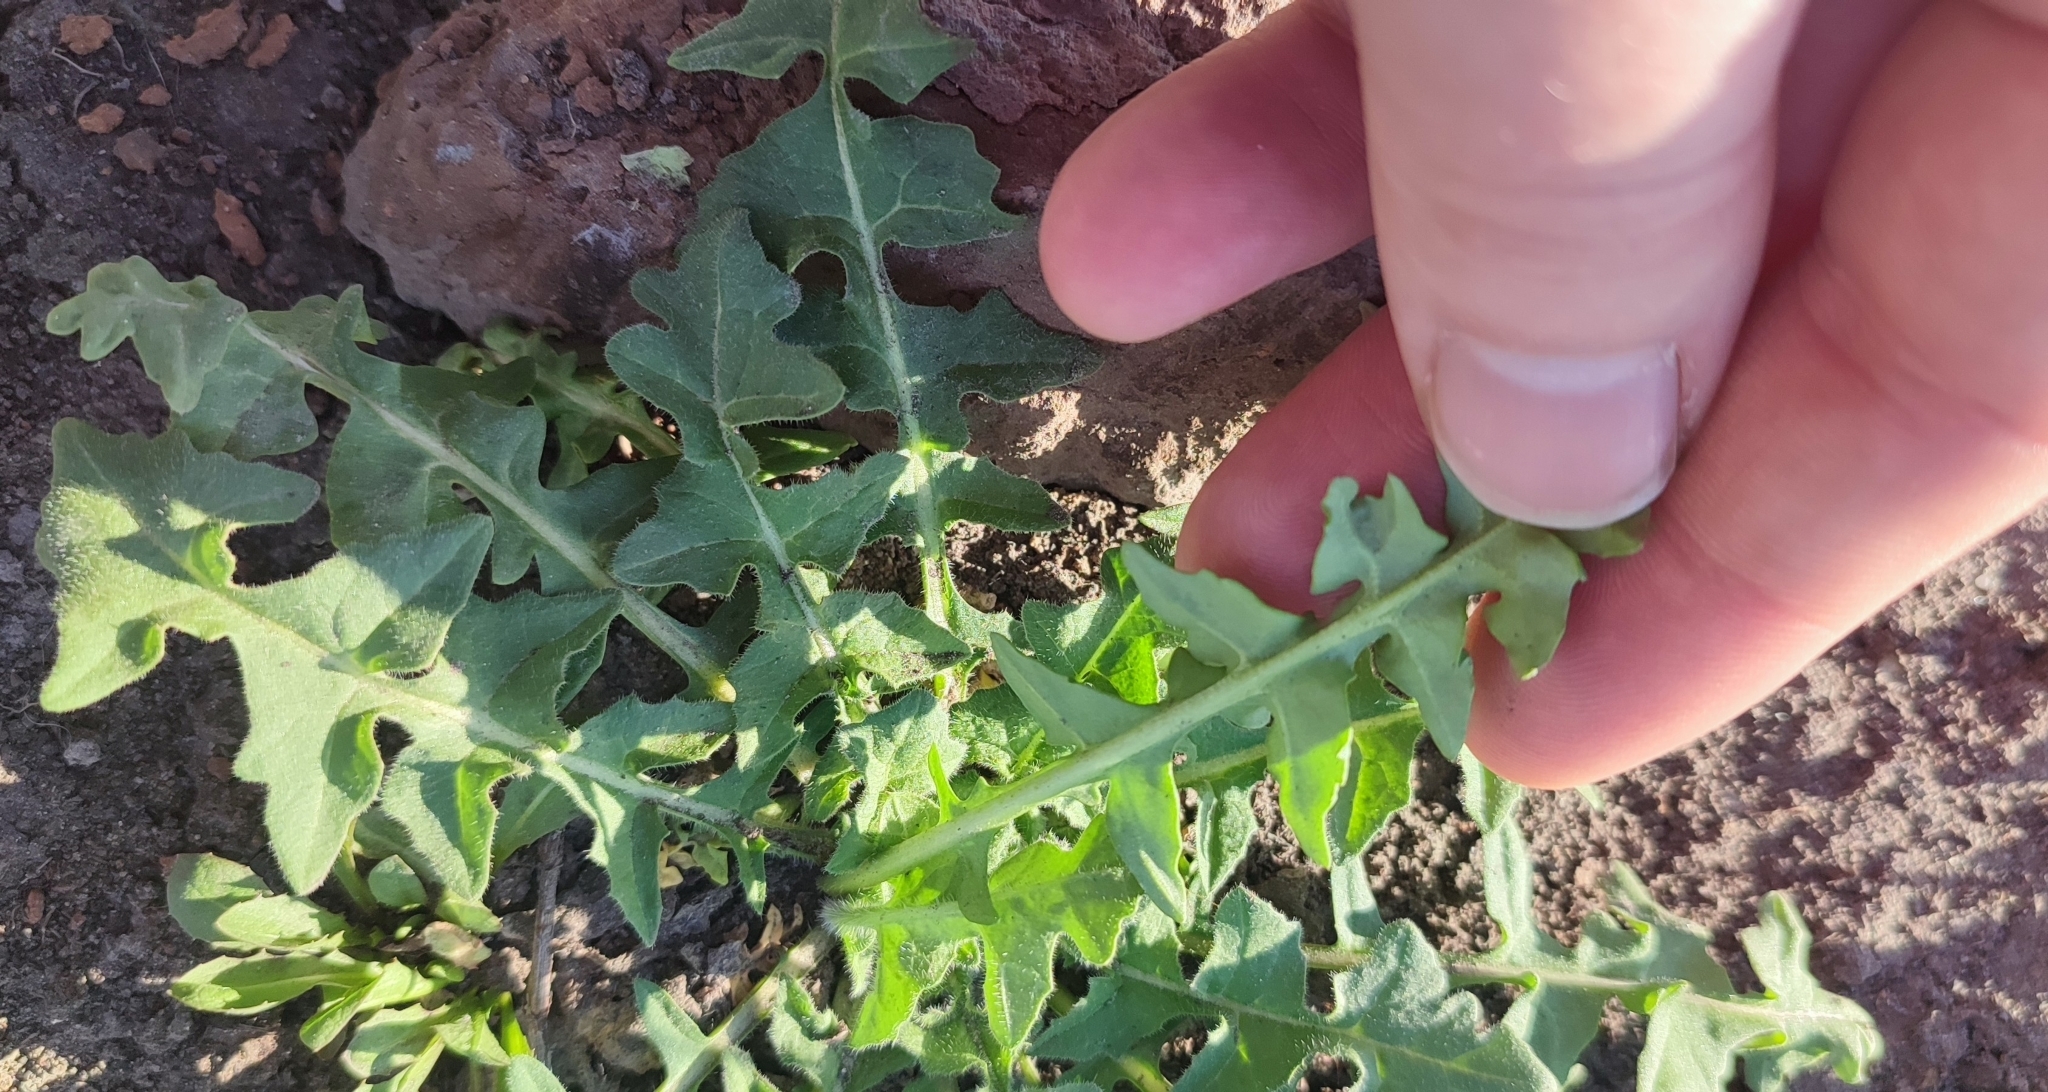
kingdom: Plantae
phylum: Tracheophyta
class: Magnoliopsida
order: Brassicales
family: Brassicaceae
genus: Sisymbrium
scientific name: Sisymbrium loeselii
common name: False london-rocket
